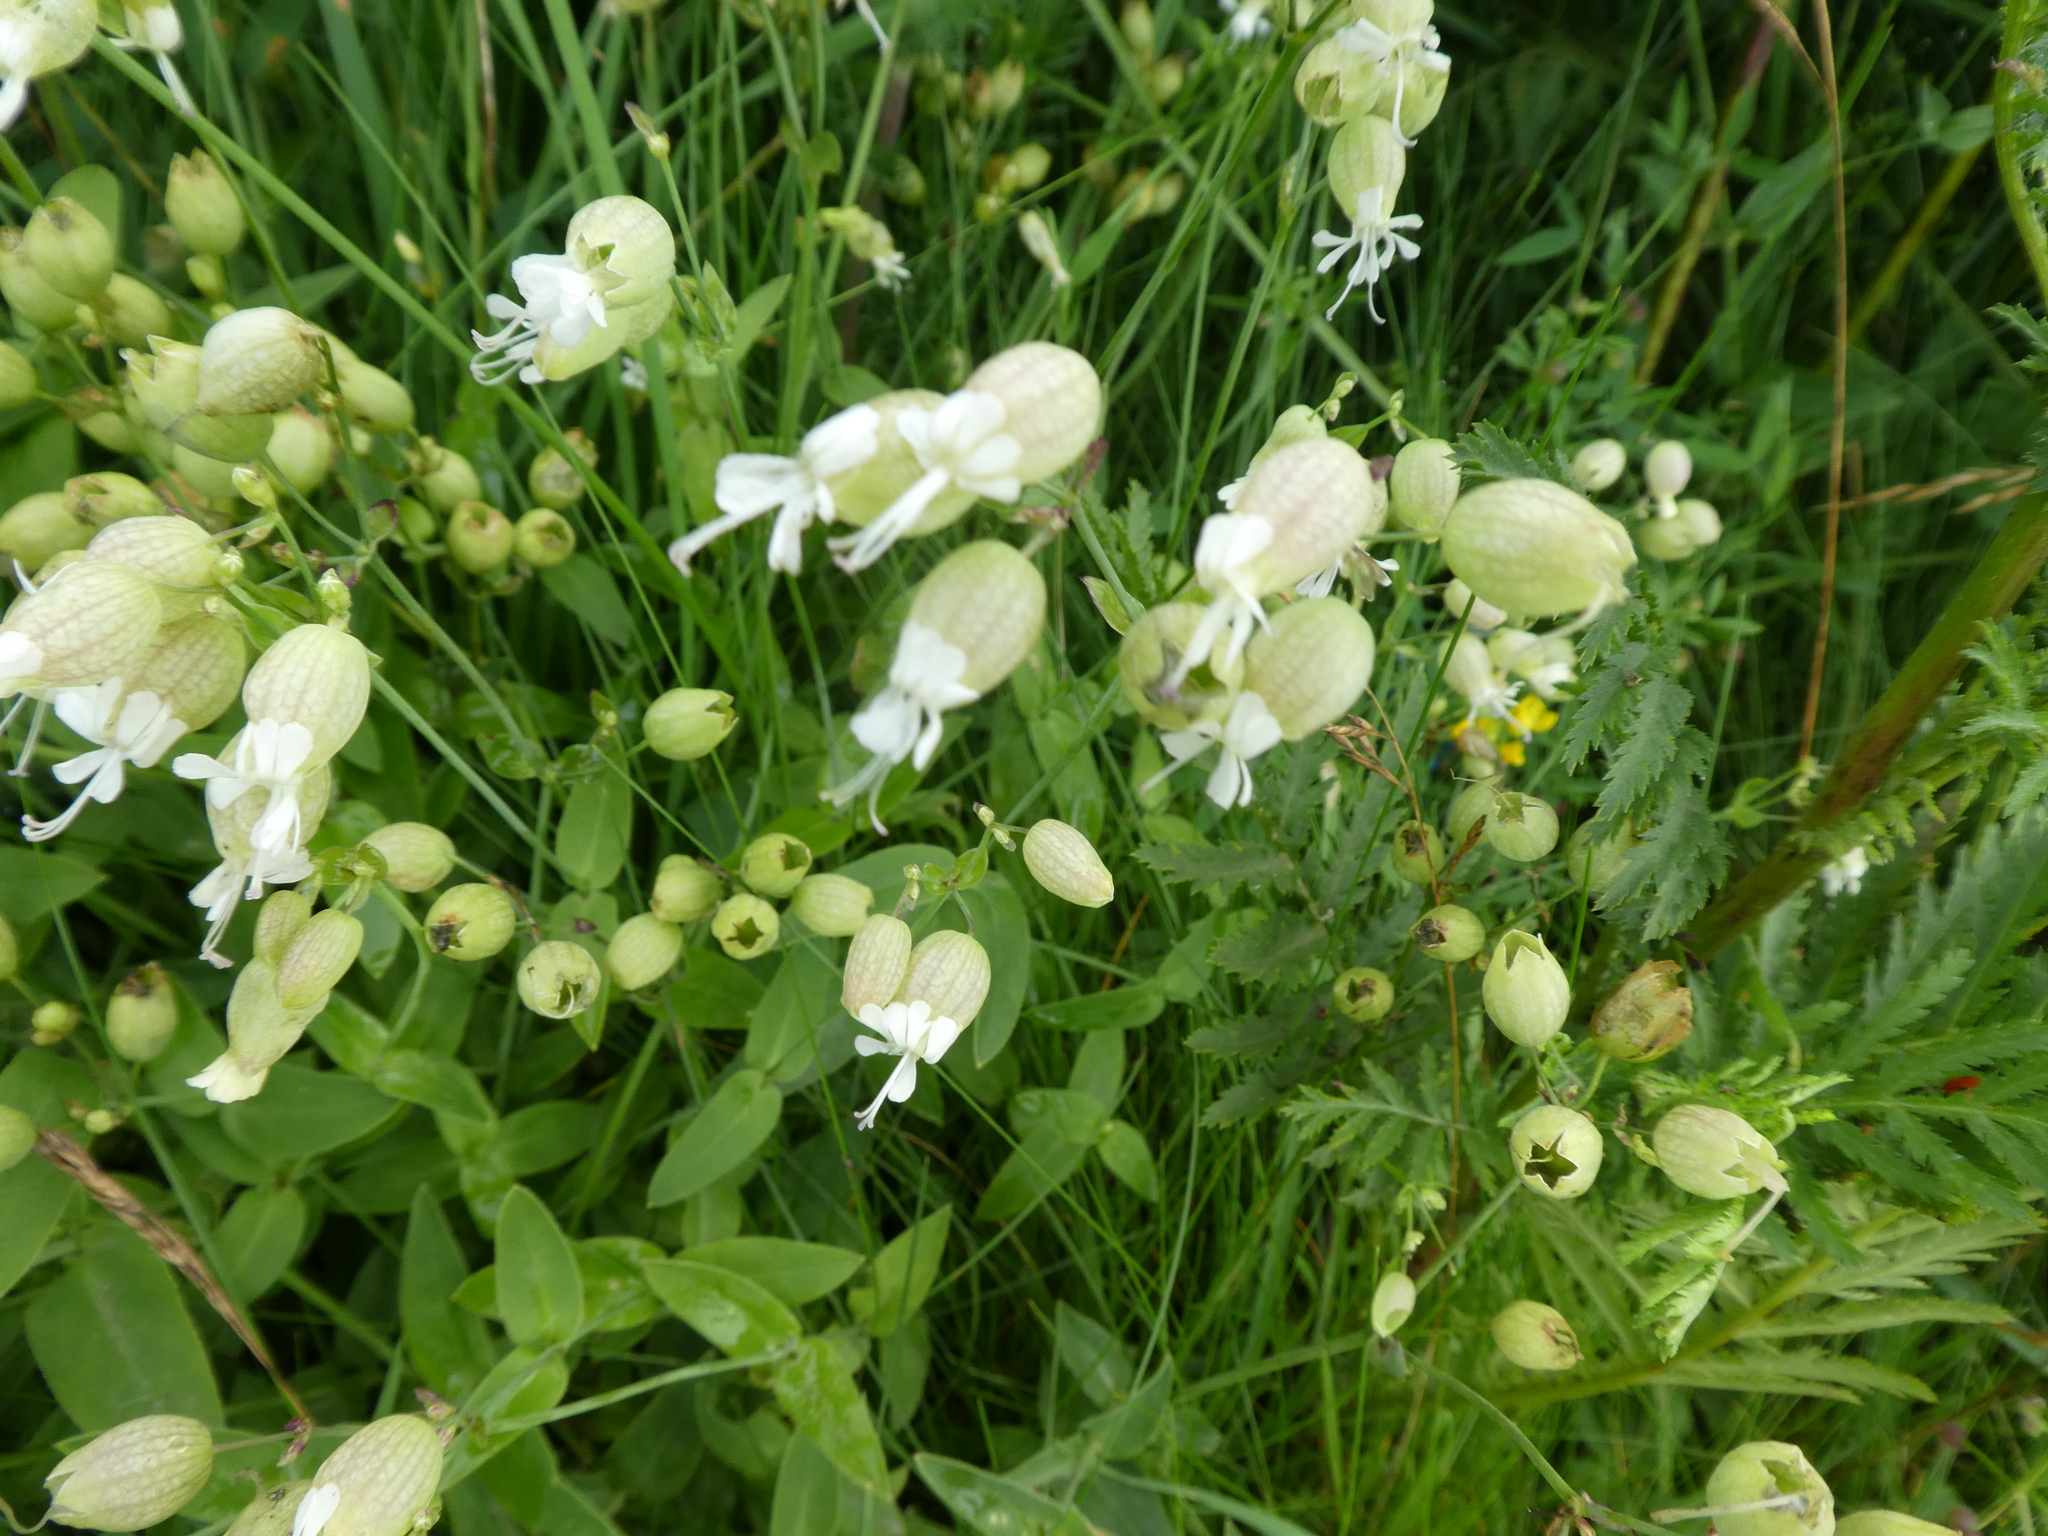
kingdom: Plantae
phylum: Tracheophyta
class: Magnoliopsida
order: Caryophyllales
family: Caryophyllaceae
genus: Silene
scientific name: Silene vulgaris
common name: Bladder campion
